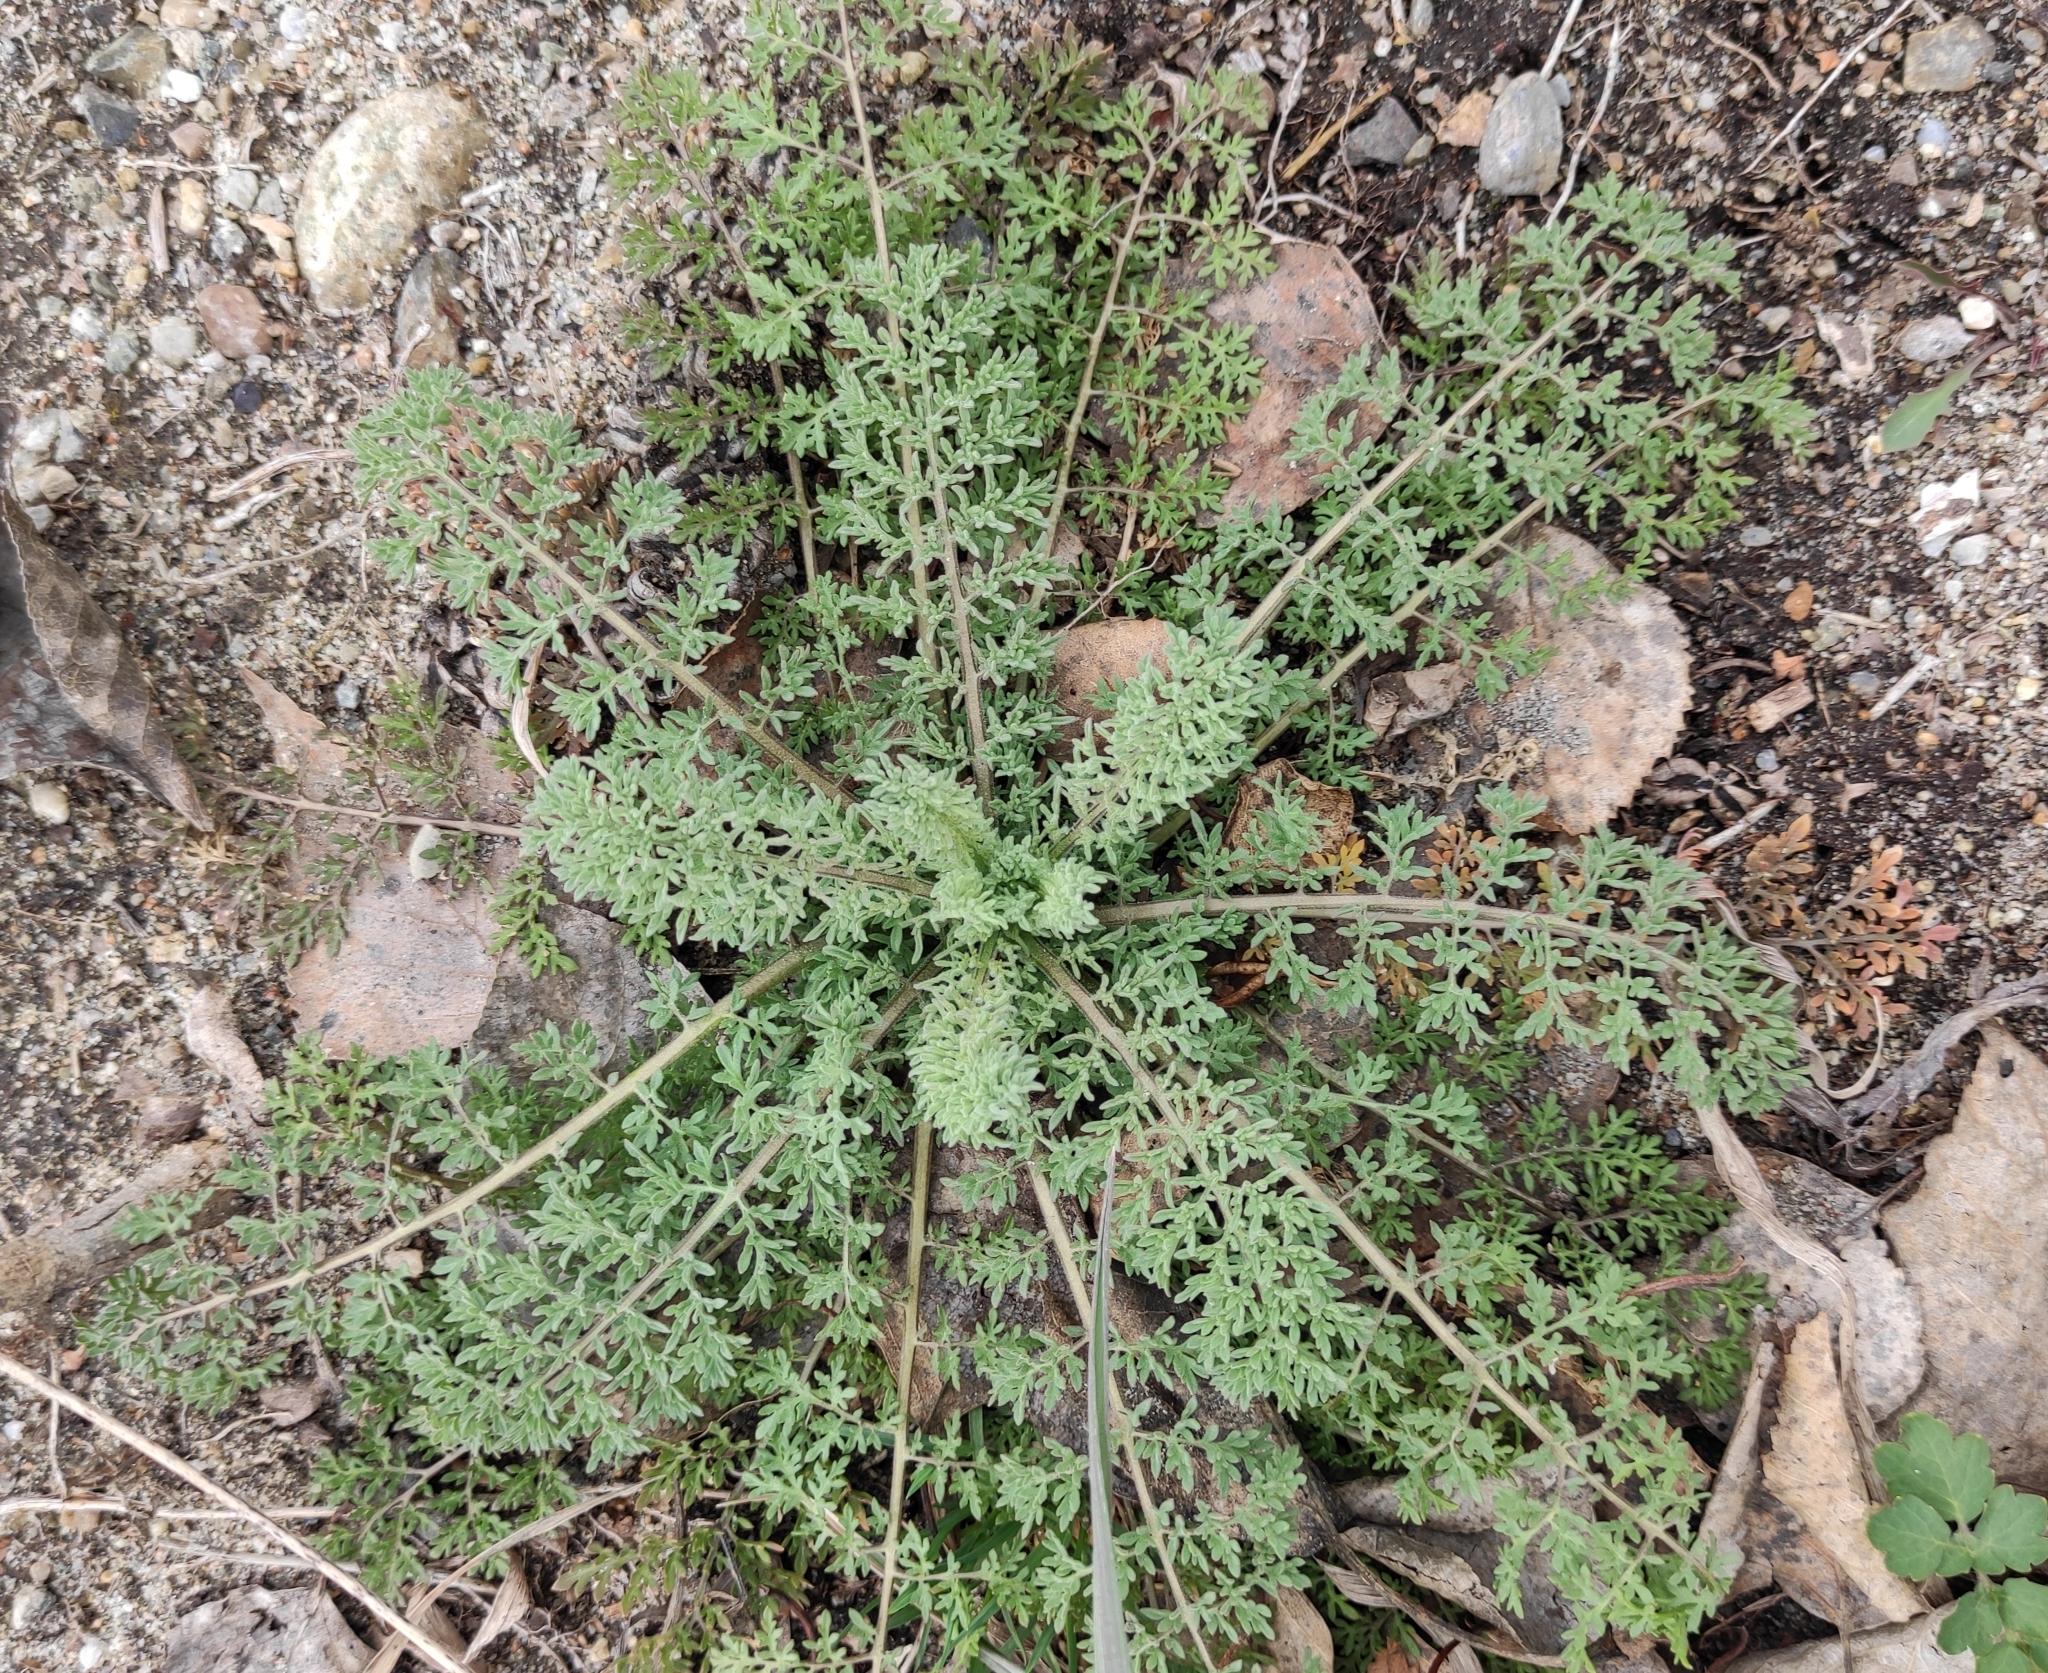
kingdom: Plantae
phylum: Tracheophyta
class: Magnoliopsida
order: Brassicales
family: Brassicaceae
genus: Descurainia
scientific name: Descurainia sophia
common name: Flixweed
